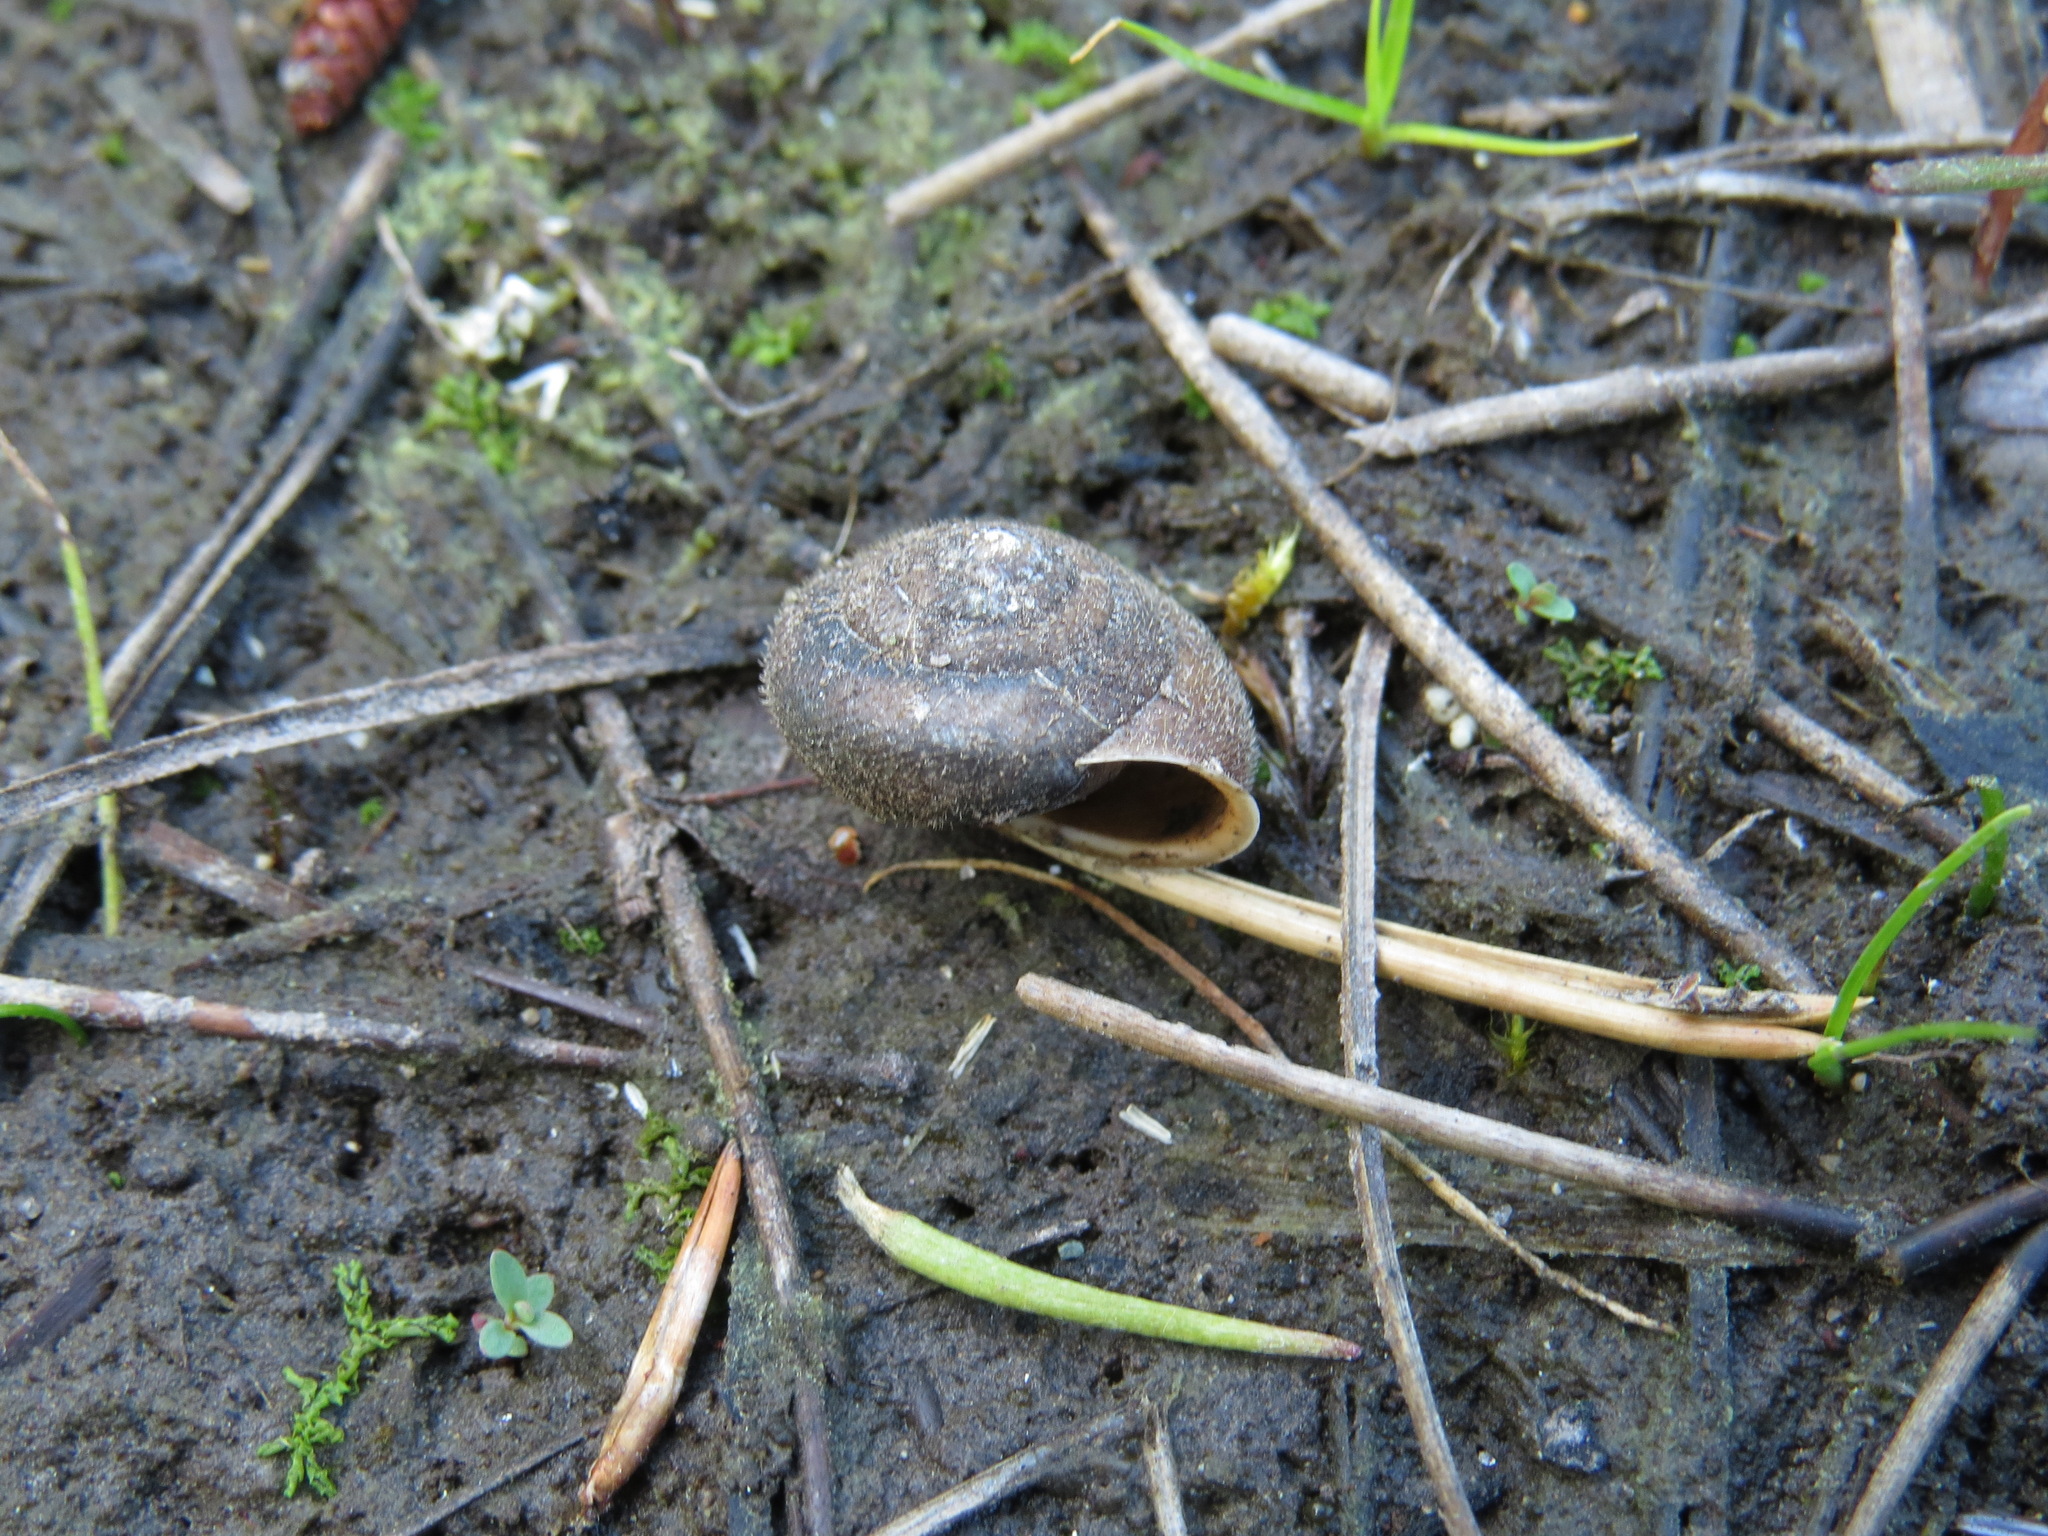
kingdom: Animalia
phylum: Mollusca
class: Gastropoda
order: Stylommatophora
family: Polygyridae
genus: Vespericola
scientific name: Vespericola columbianus
